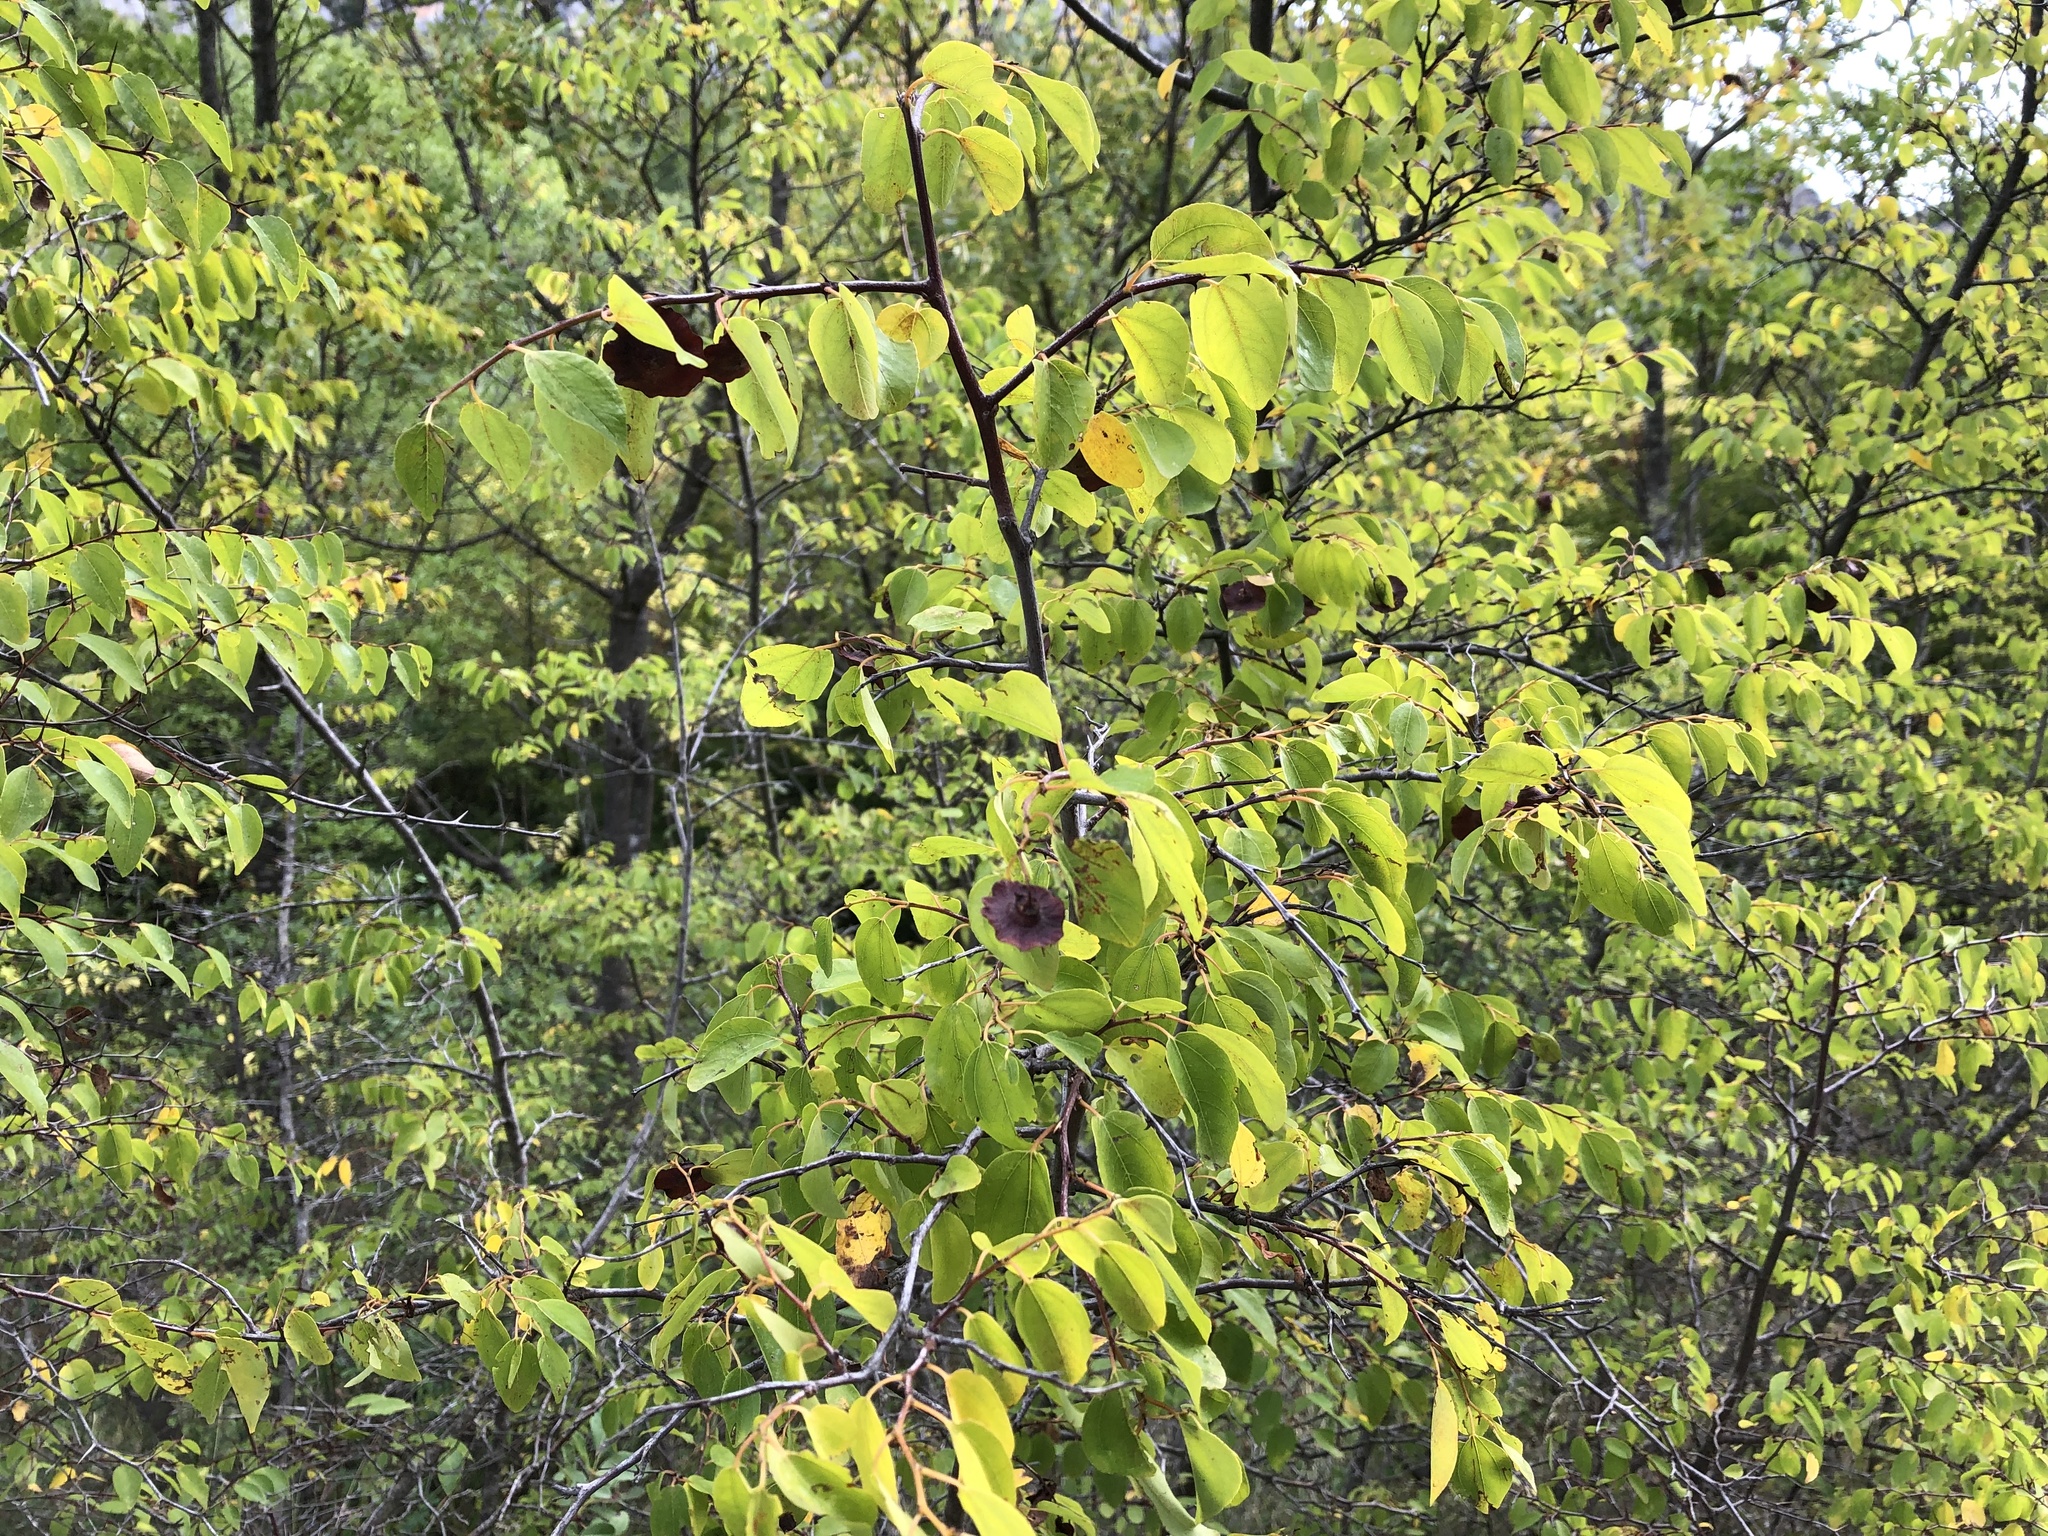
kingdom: Plantae
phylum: Tracheophyta
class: Magnoliopsida
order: Rosales
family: Rhamnaceae
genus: Paliurus
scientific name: Paliurus spina-christi
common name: Jeruselem thorn
